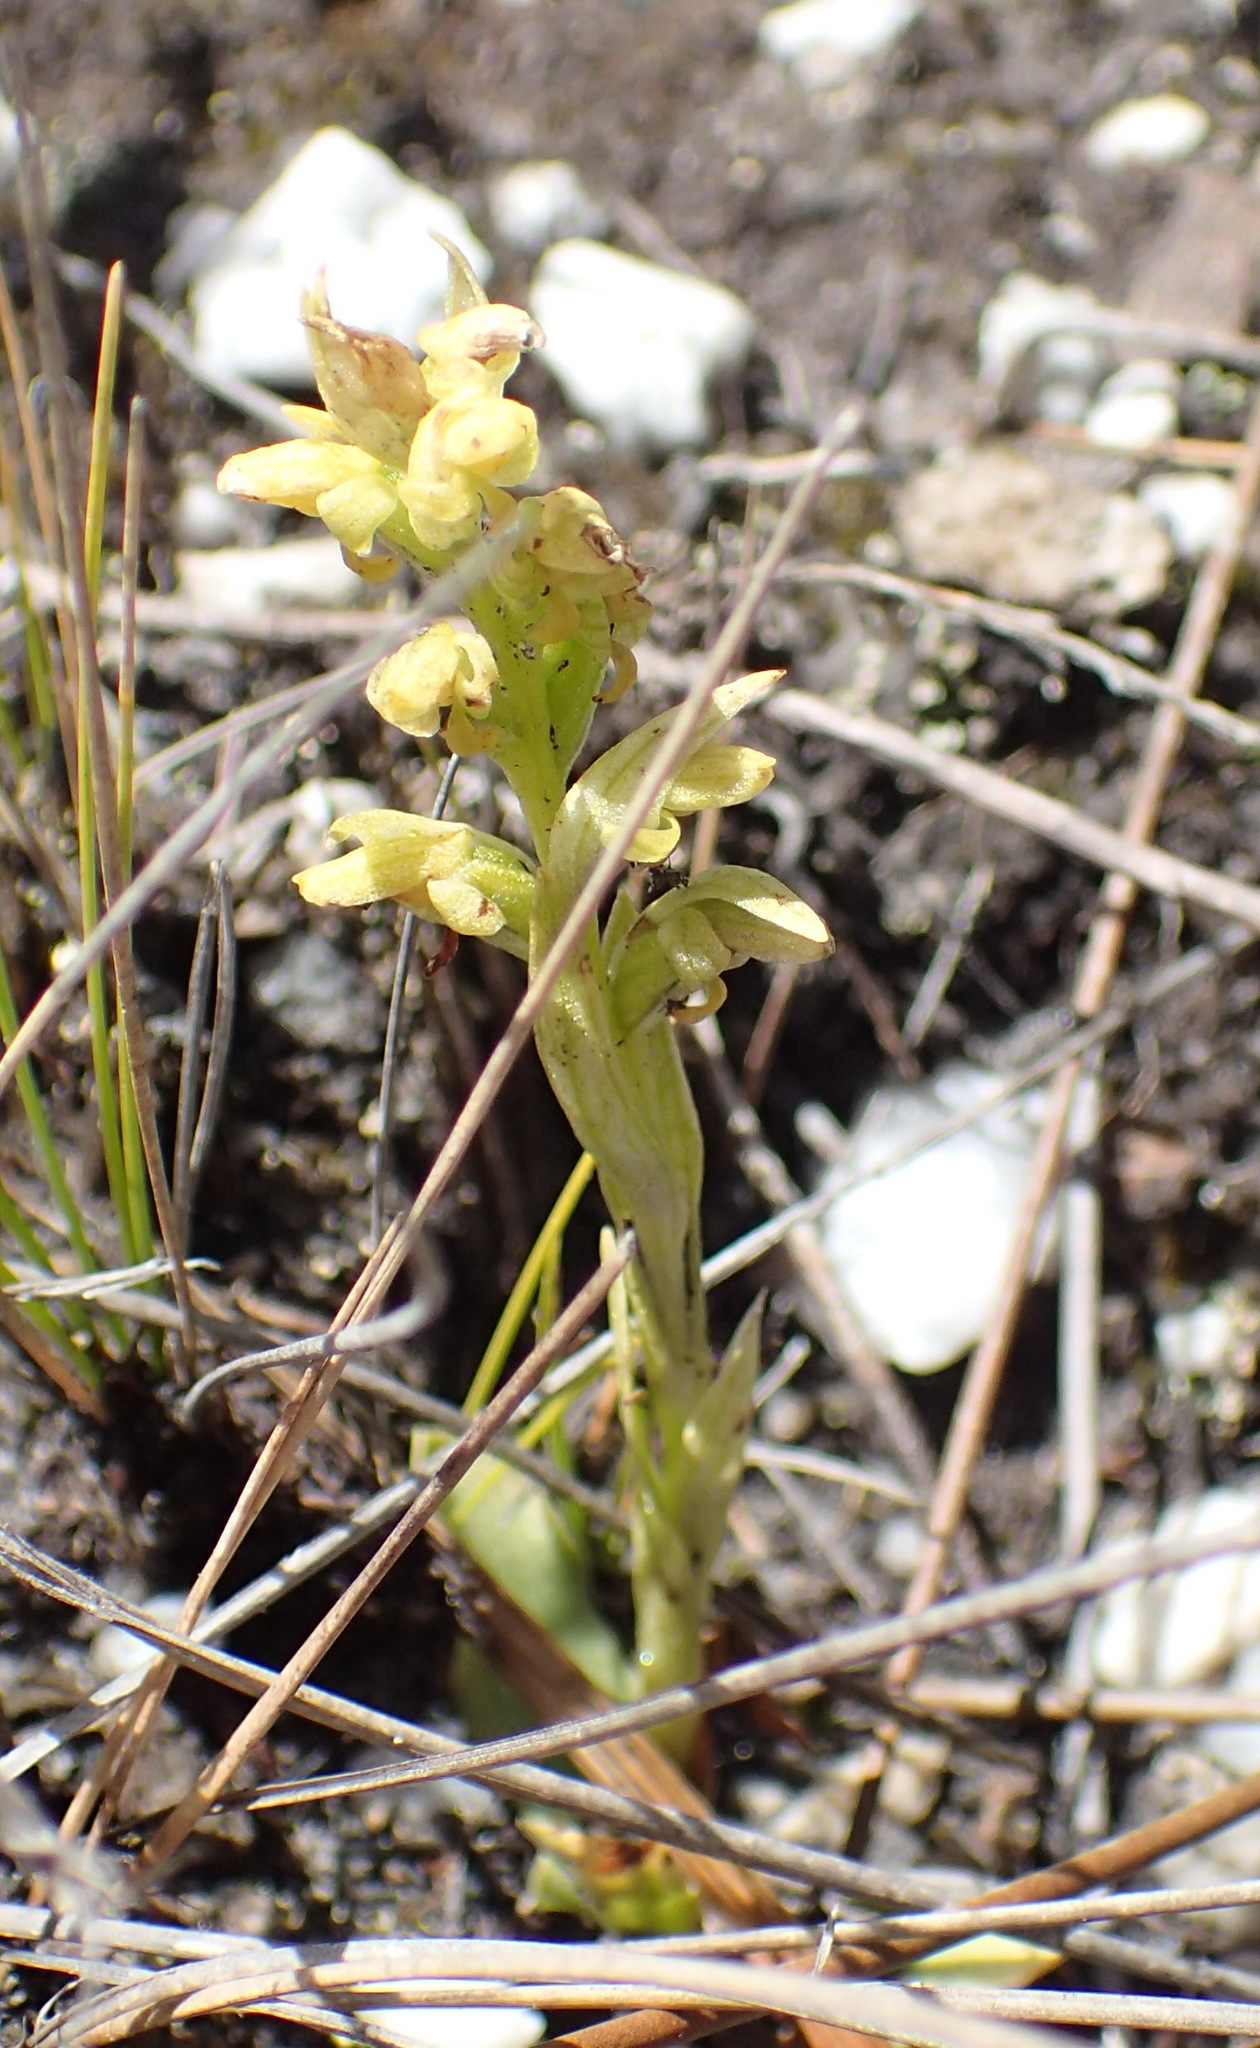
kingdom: Plantae
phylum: Tracheophyta
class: Liliopsida
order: Asparagales
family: Orchidaceae
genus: Disa
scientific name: Disa cylindrica
